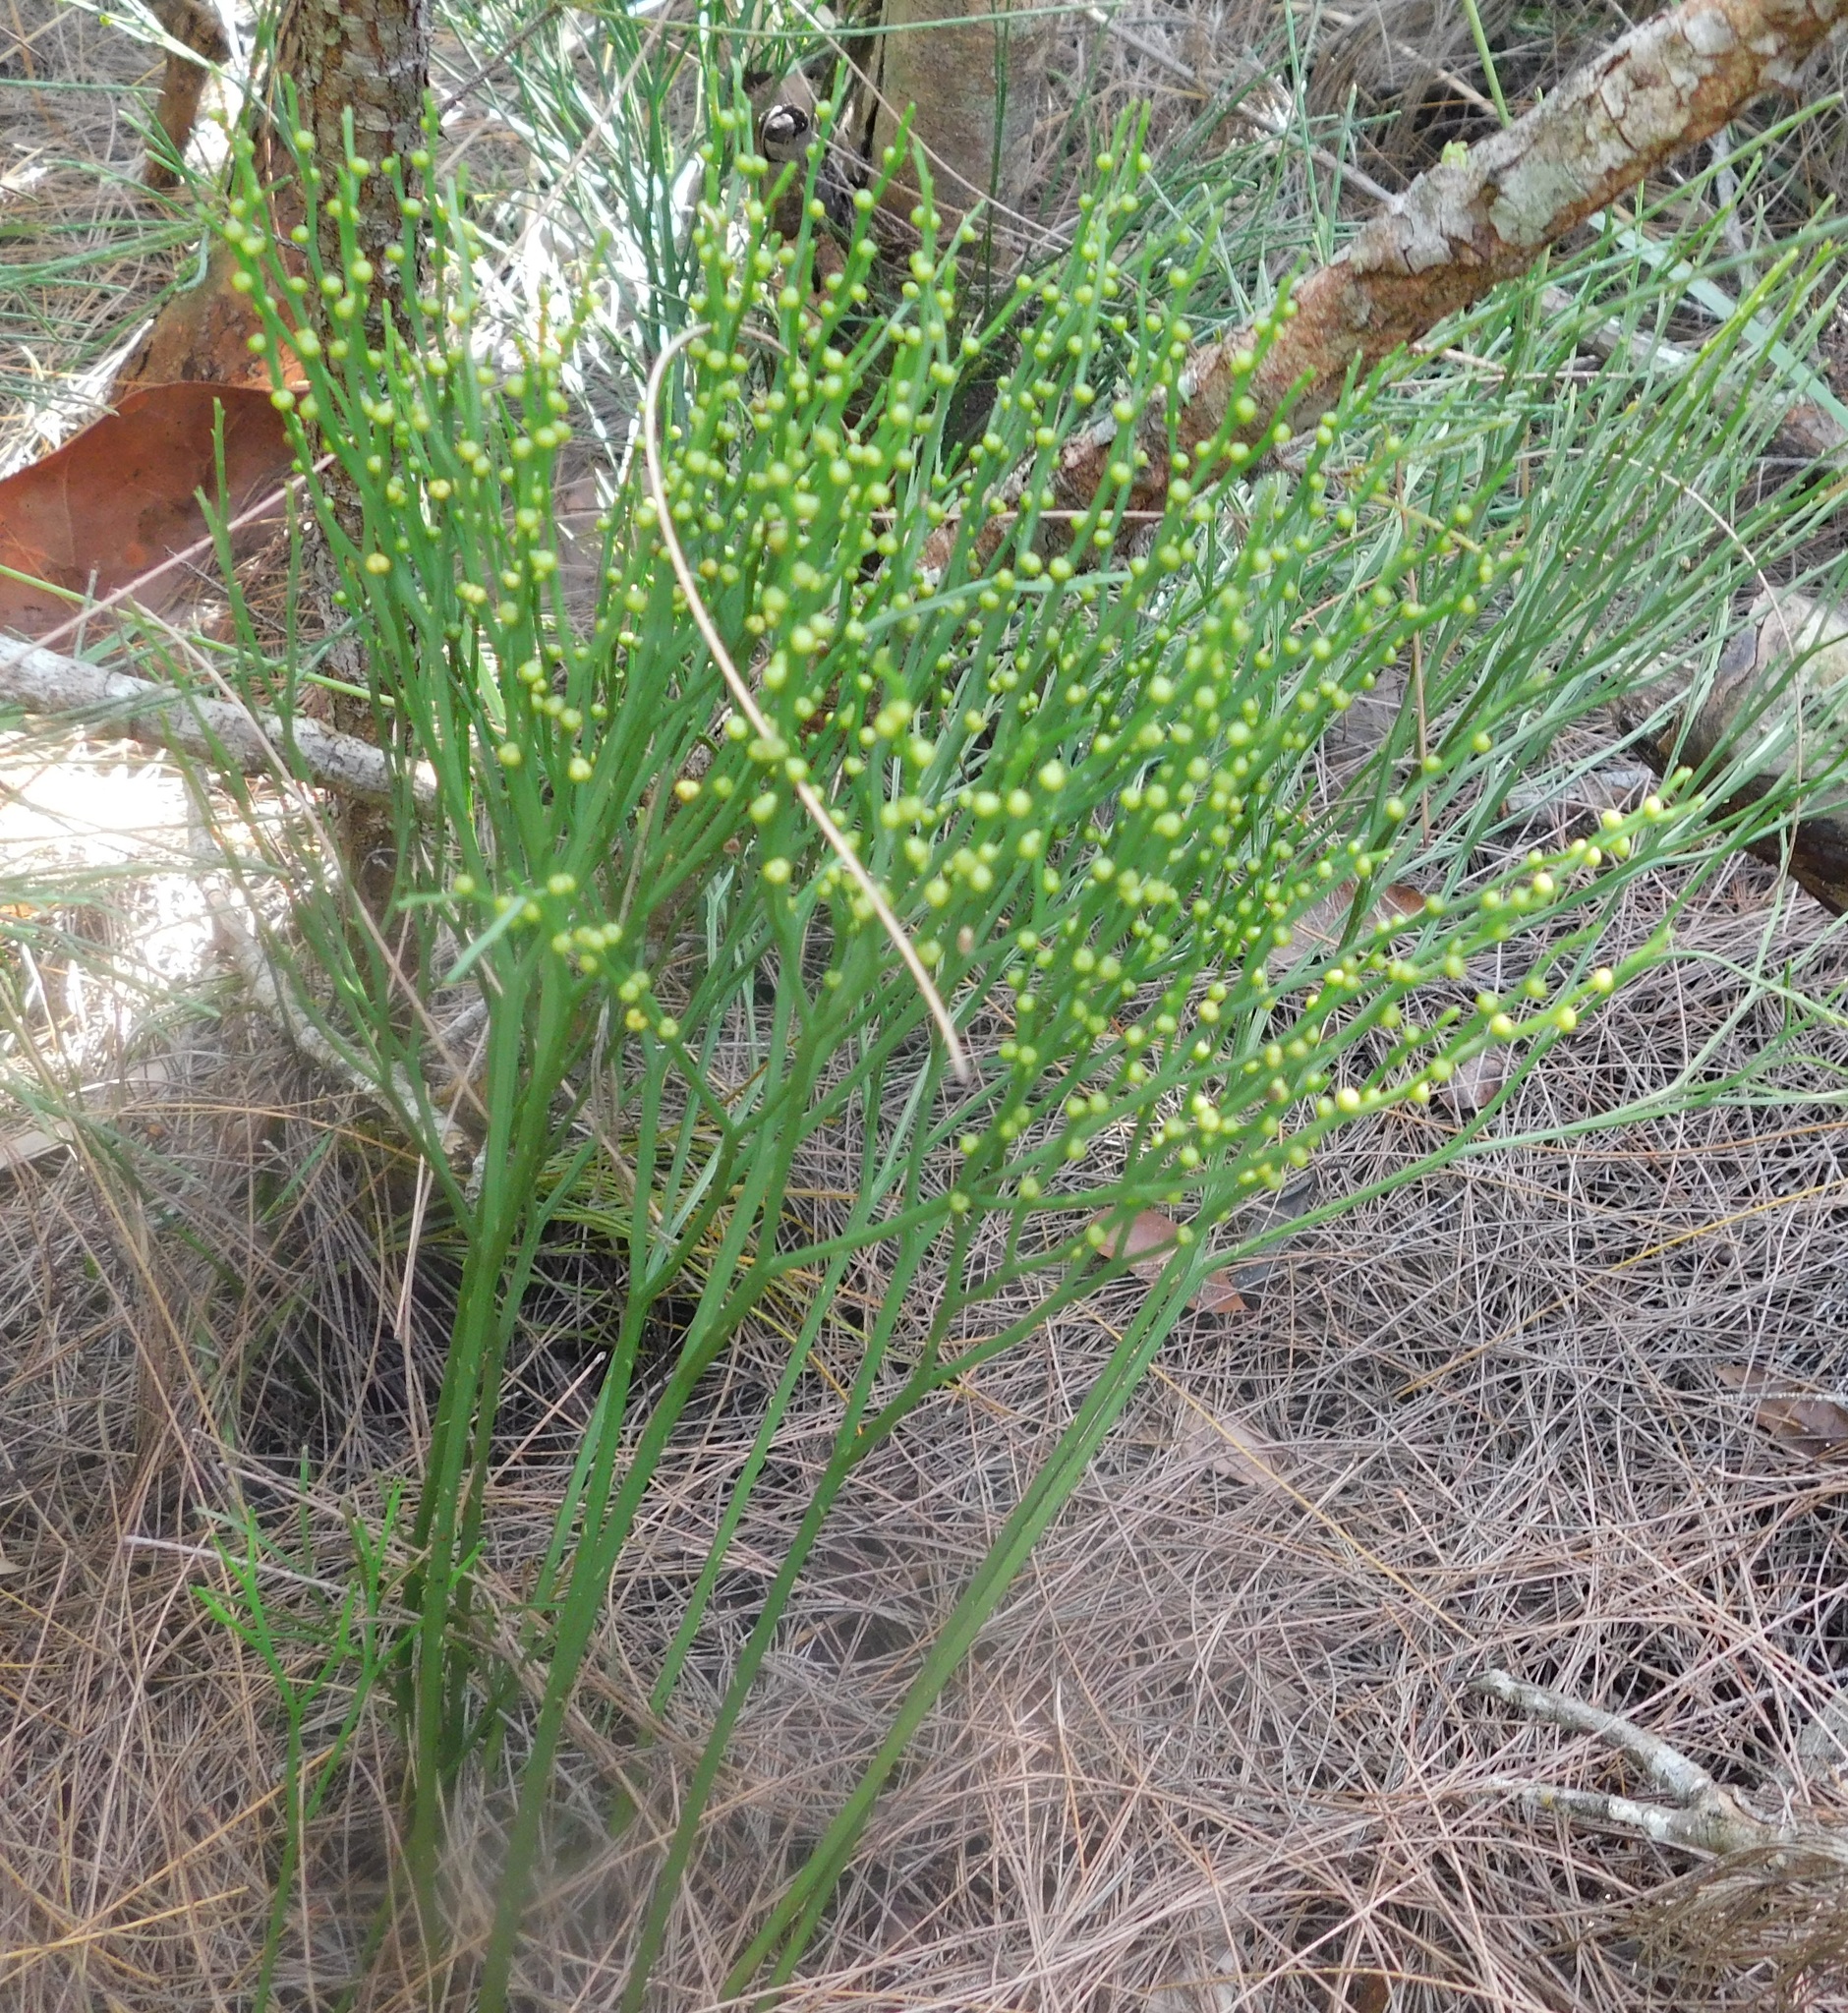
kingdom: Plantae
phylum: Tracheophyta
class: Polypodiopsida
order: Psilotales
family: Psilotaceae
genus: Psilotum
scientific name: Psilotum nudum
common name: Skeleton fork fern
